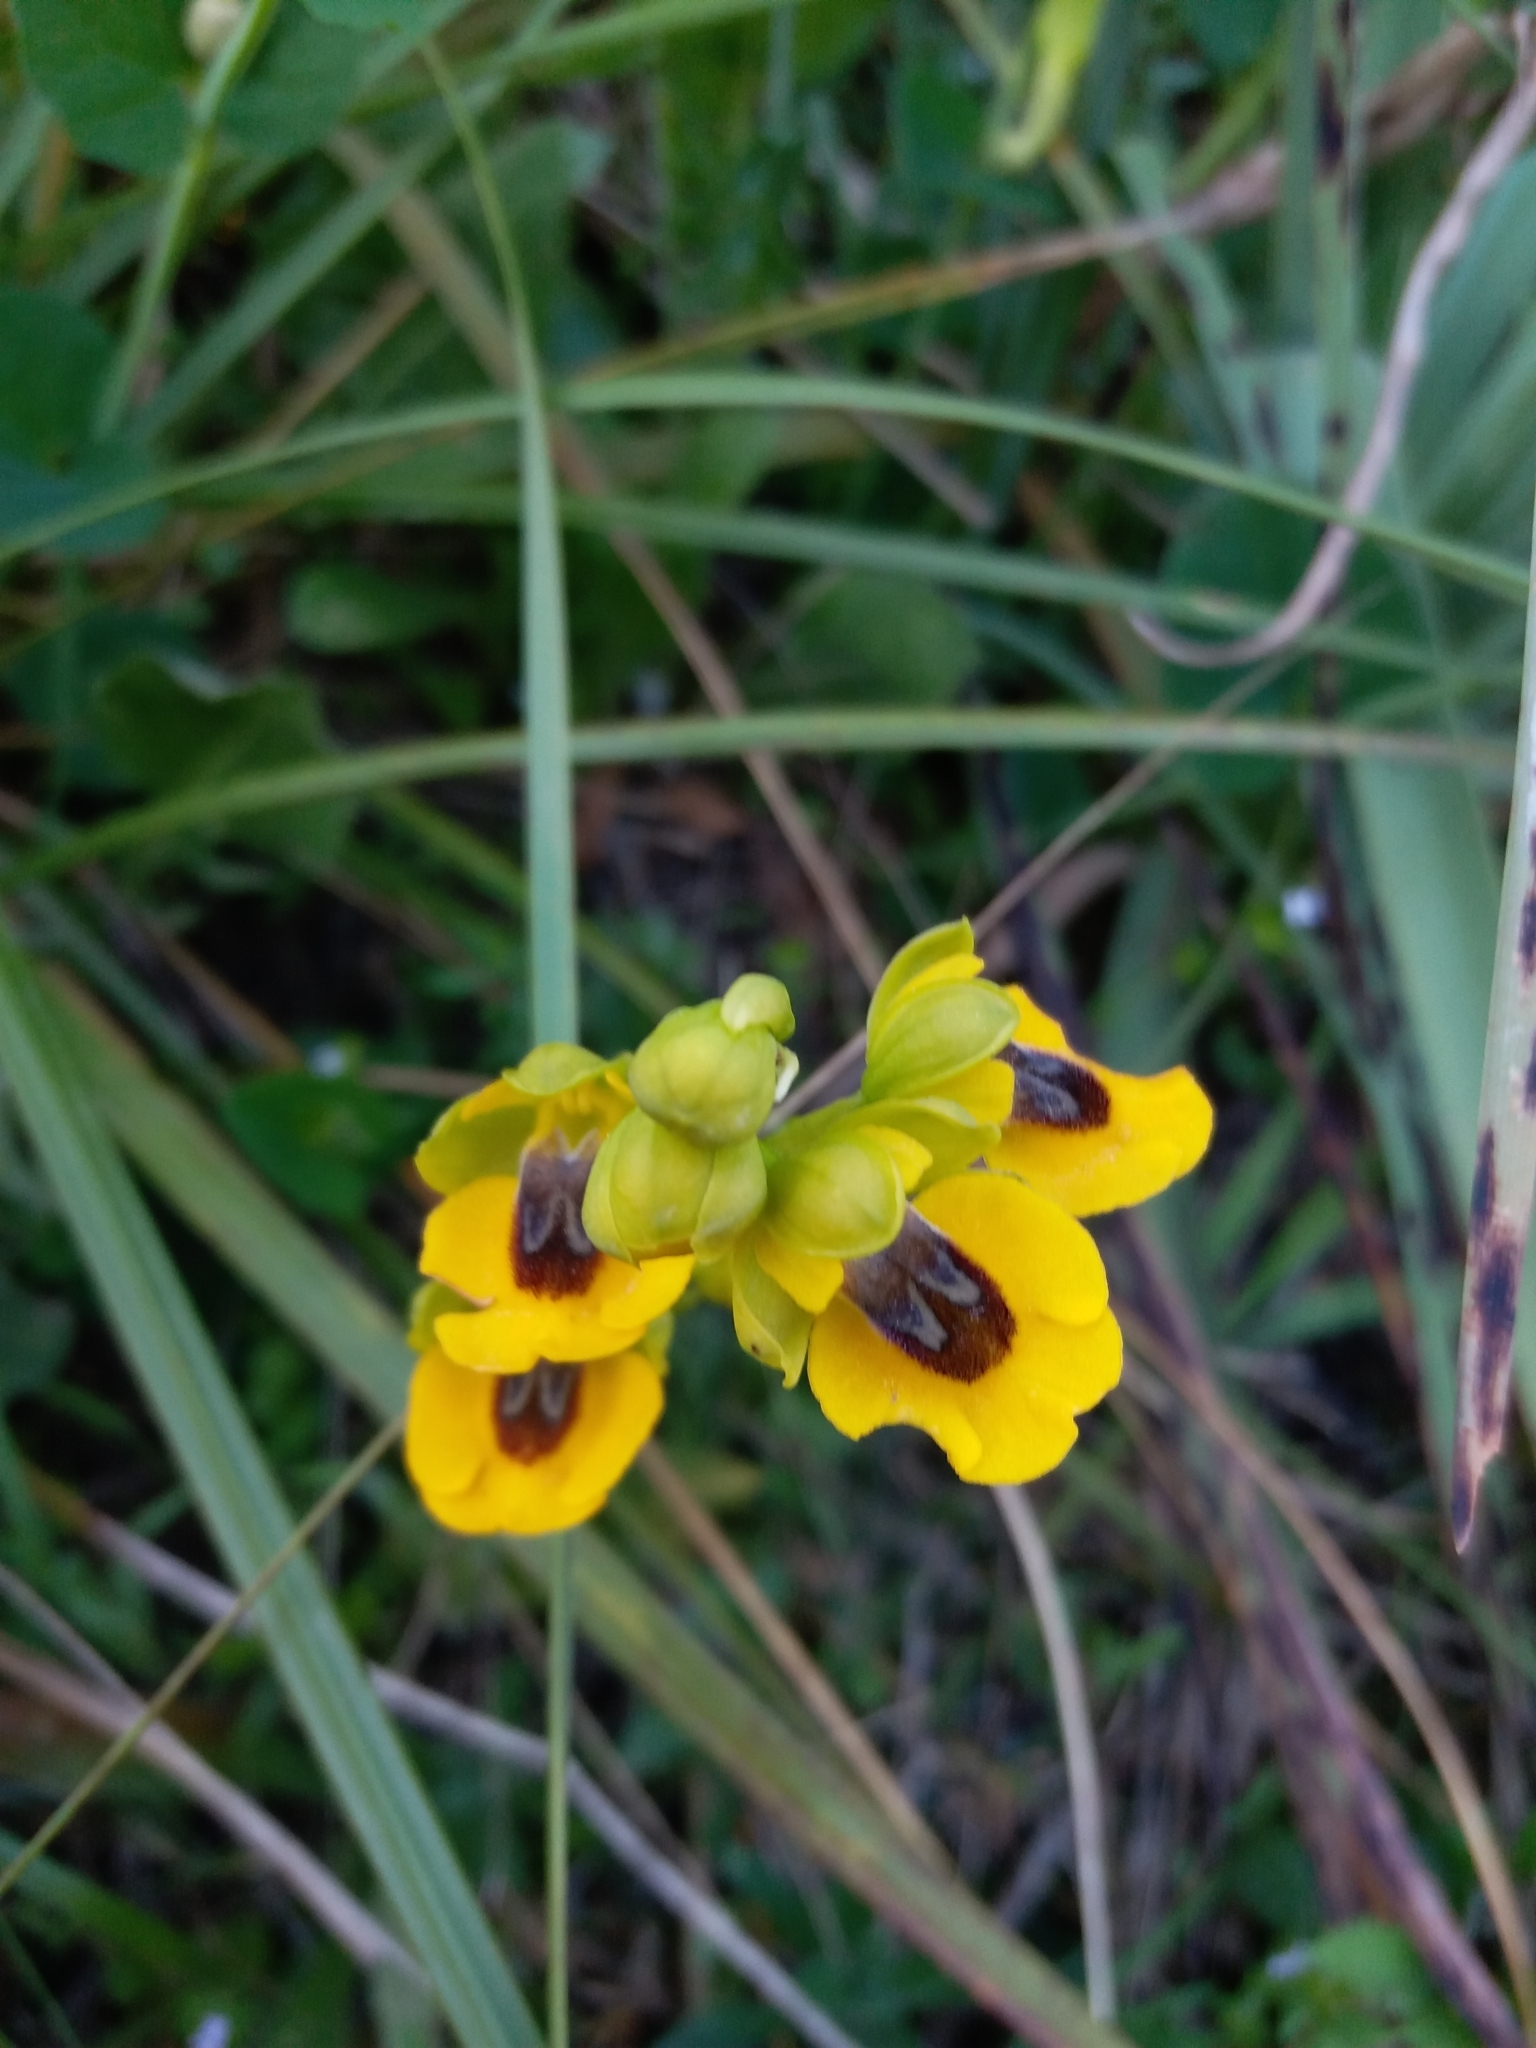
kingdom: Plantae
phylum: Tracheophyta
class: Liliopsida
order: Asparagales
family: Orchidaceae
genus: Ophrys
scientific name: Ophrys lutea
